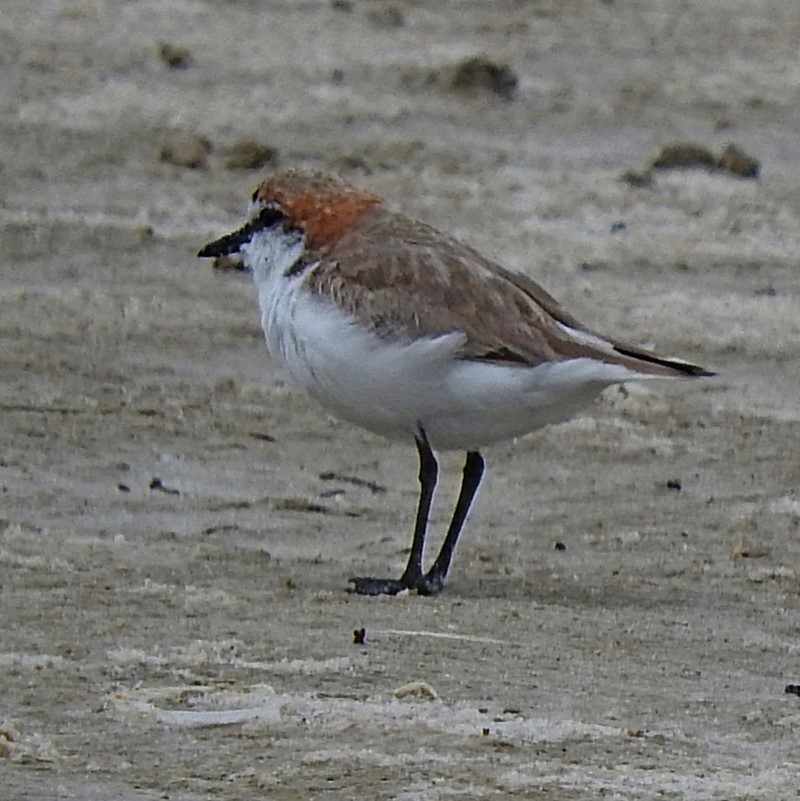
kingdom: Animalia
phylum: Chordata
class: Aves
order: Charadriiformes
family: Charadriidae
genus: Anarhynchus
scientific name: Anarhynchus
